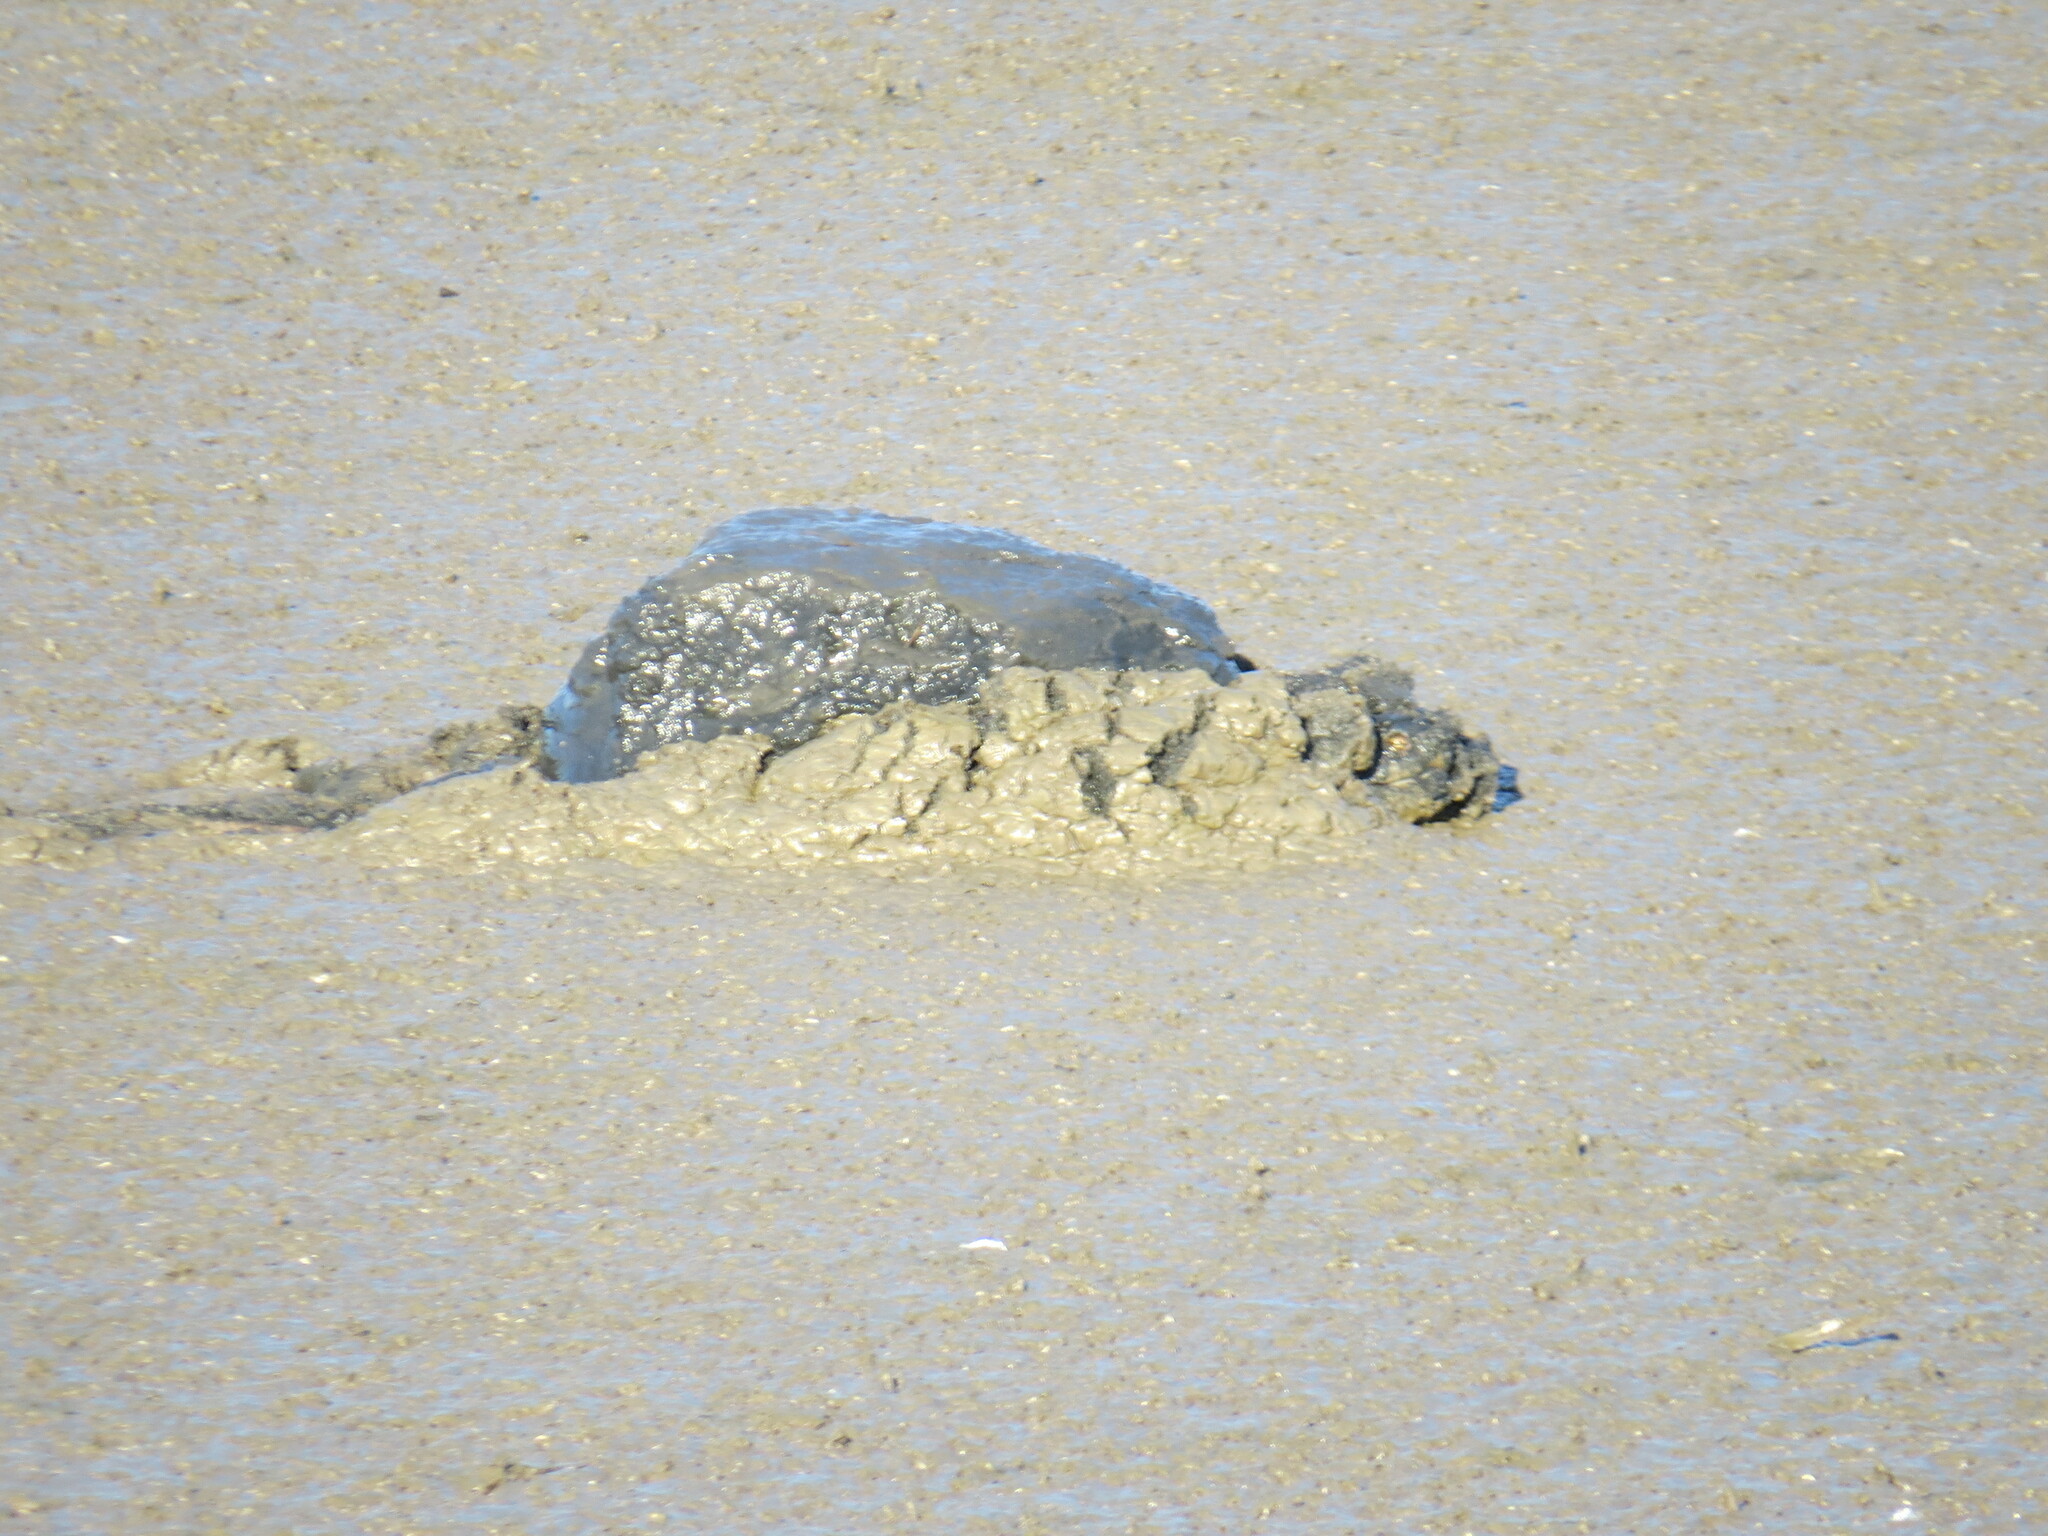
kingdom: Animalia
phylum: Chordata
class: Testudines
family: Chelydridae
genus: Chelydra
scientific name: Chelydra serpentina
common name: Common snapping turtle
